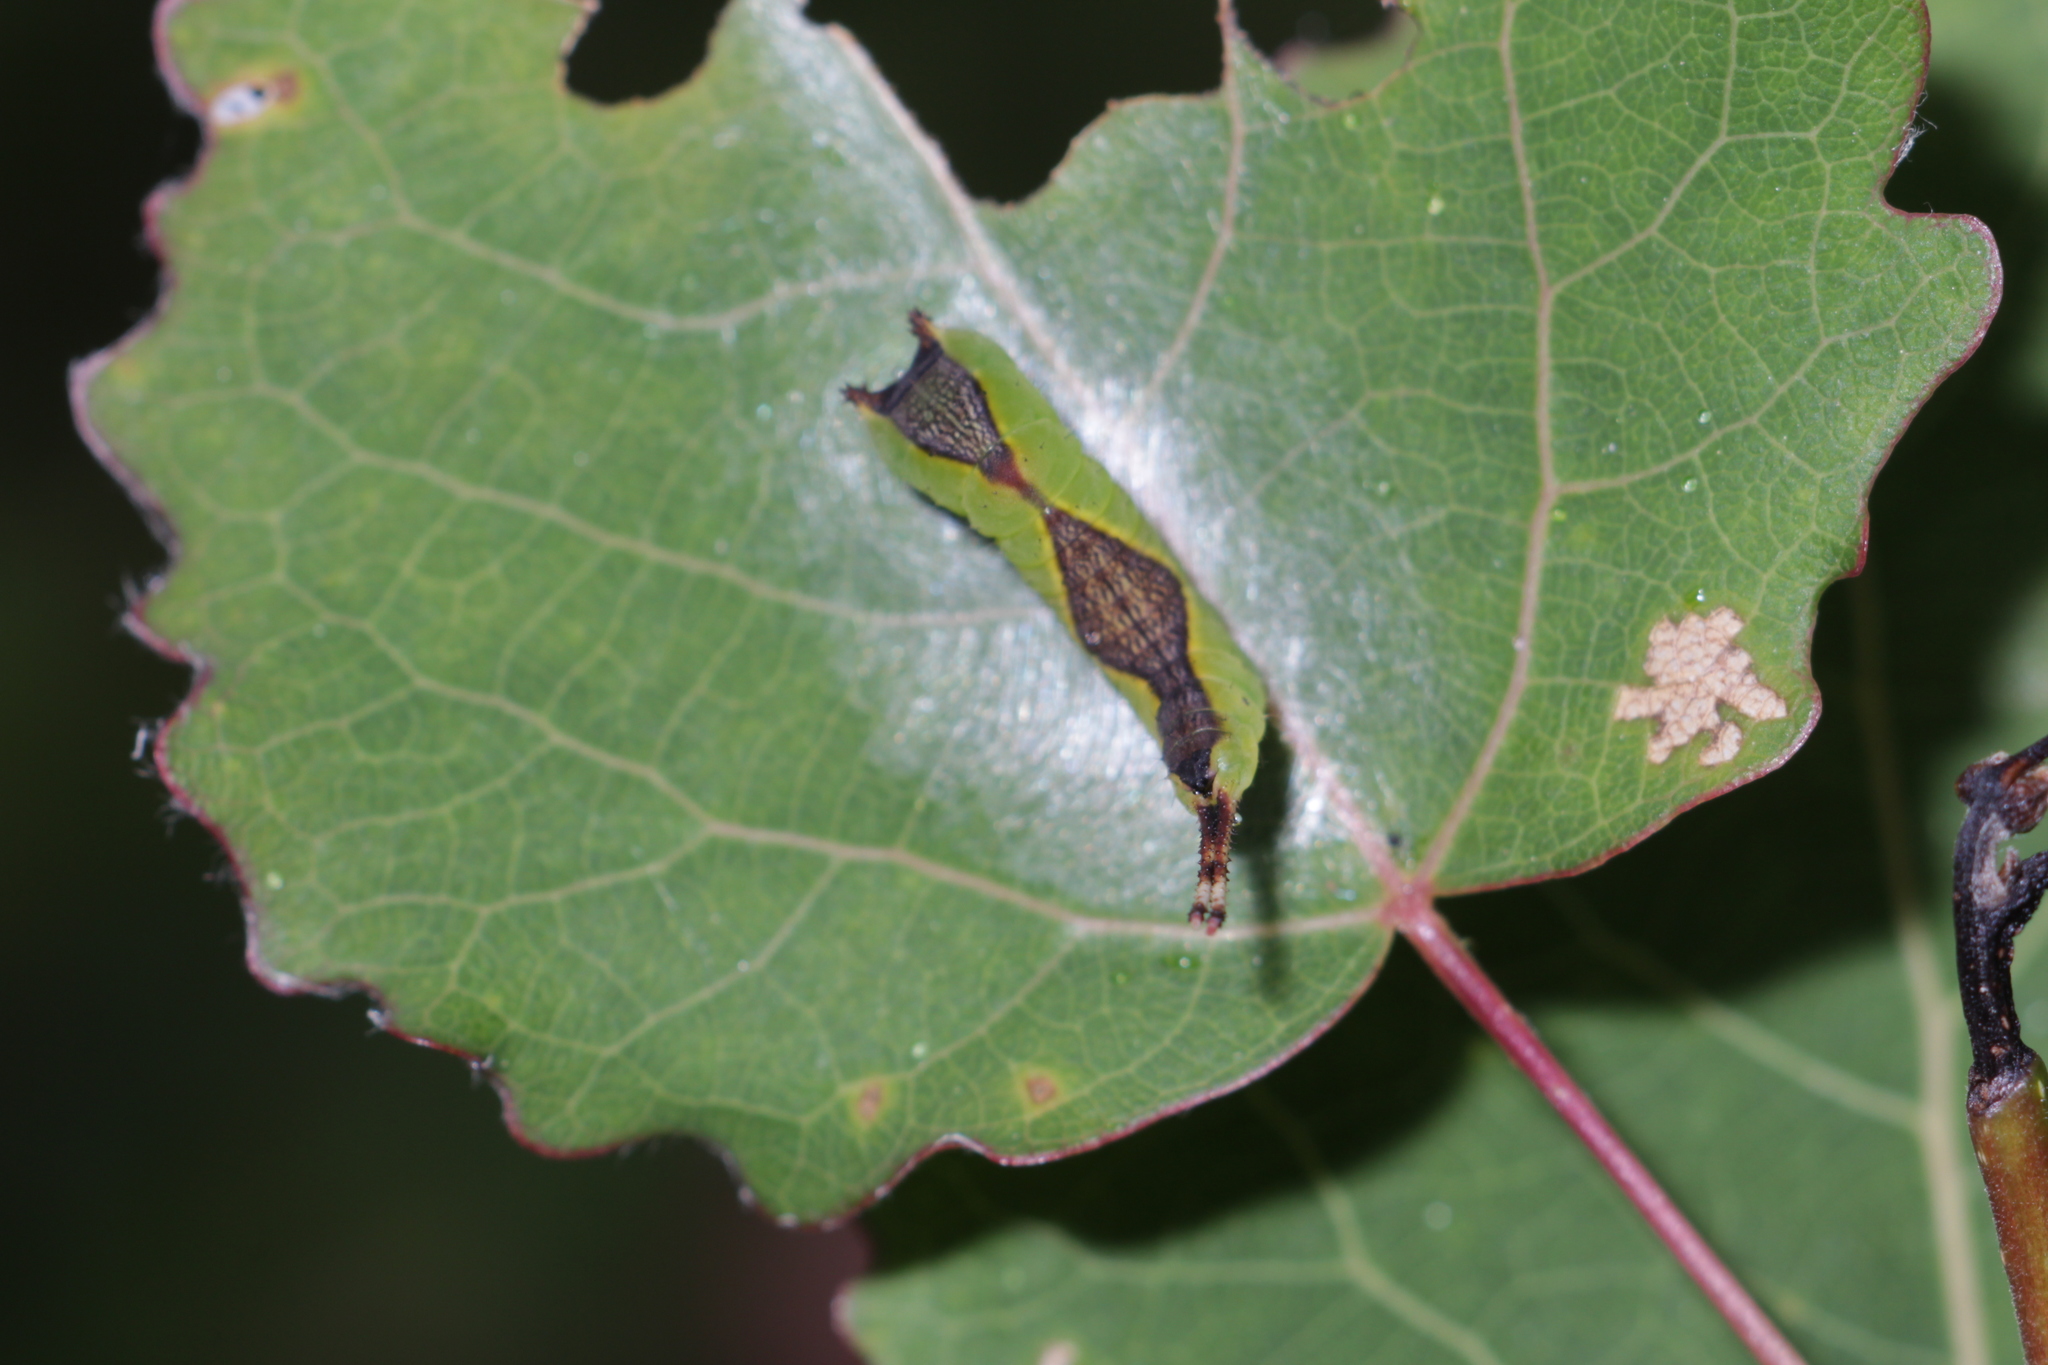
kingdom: Animalia
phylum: Arthropoda
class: Insecta
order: Lepidoptera
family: Notodontidae
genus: Cerura
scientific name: Cerura vinula
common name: Puss moth
